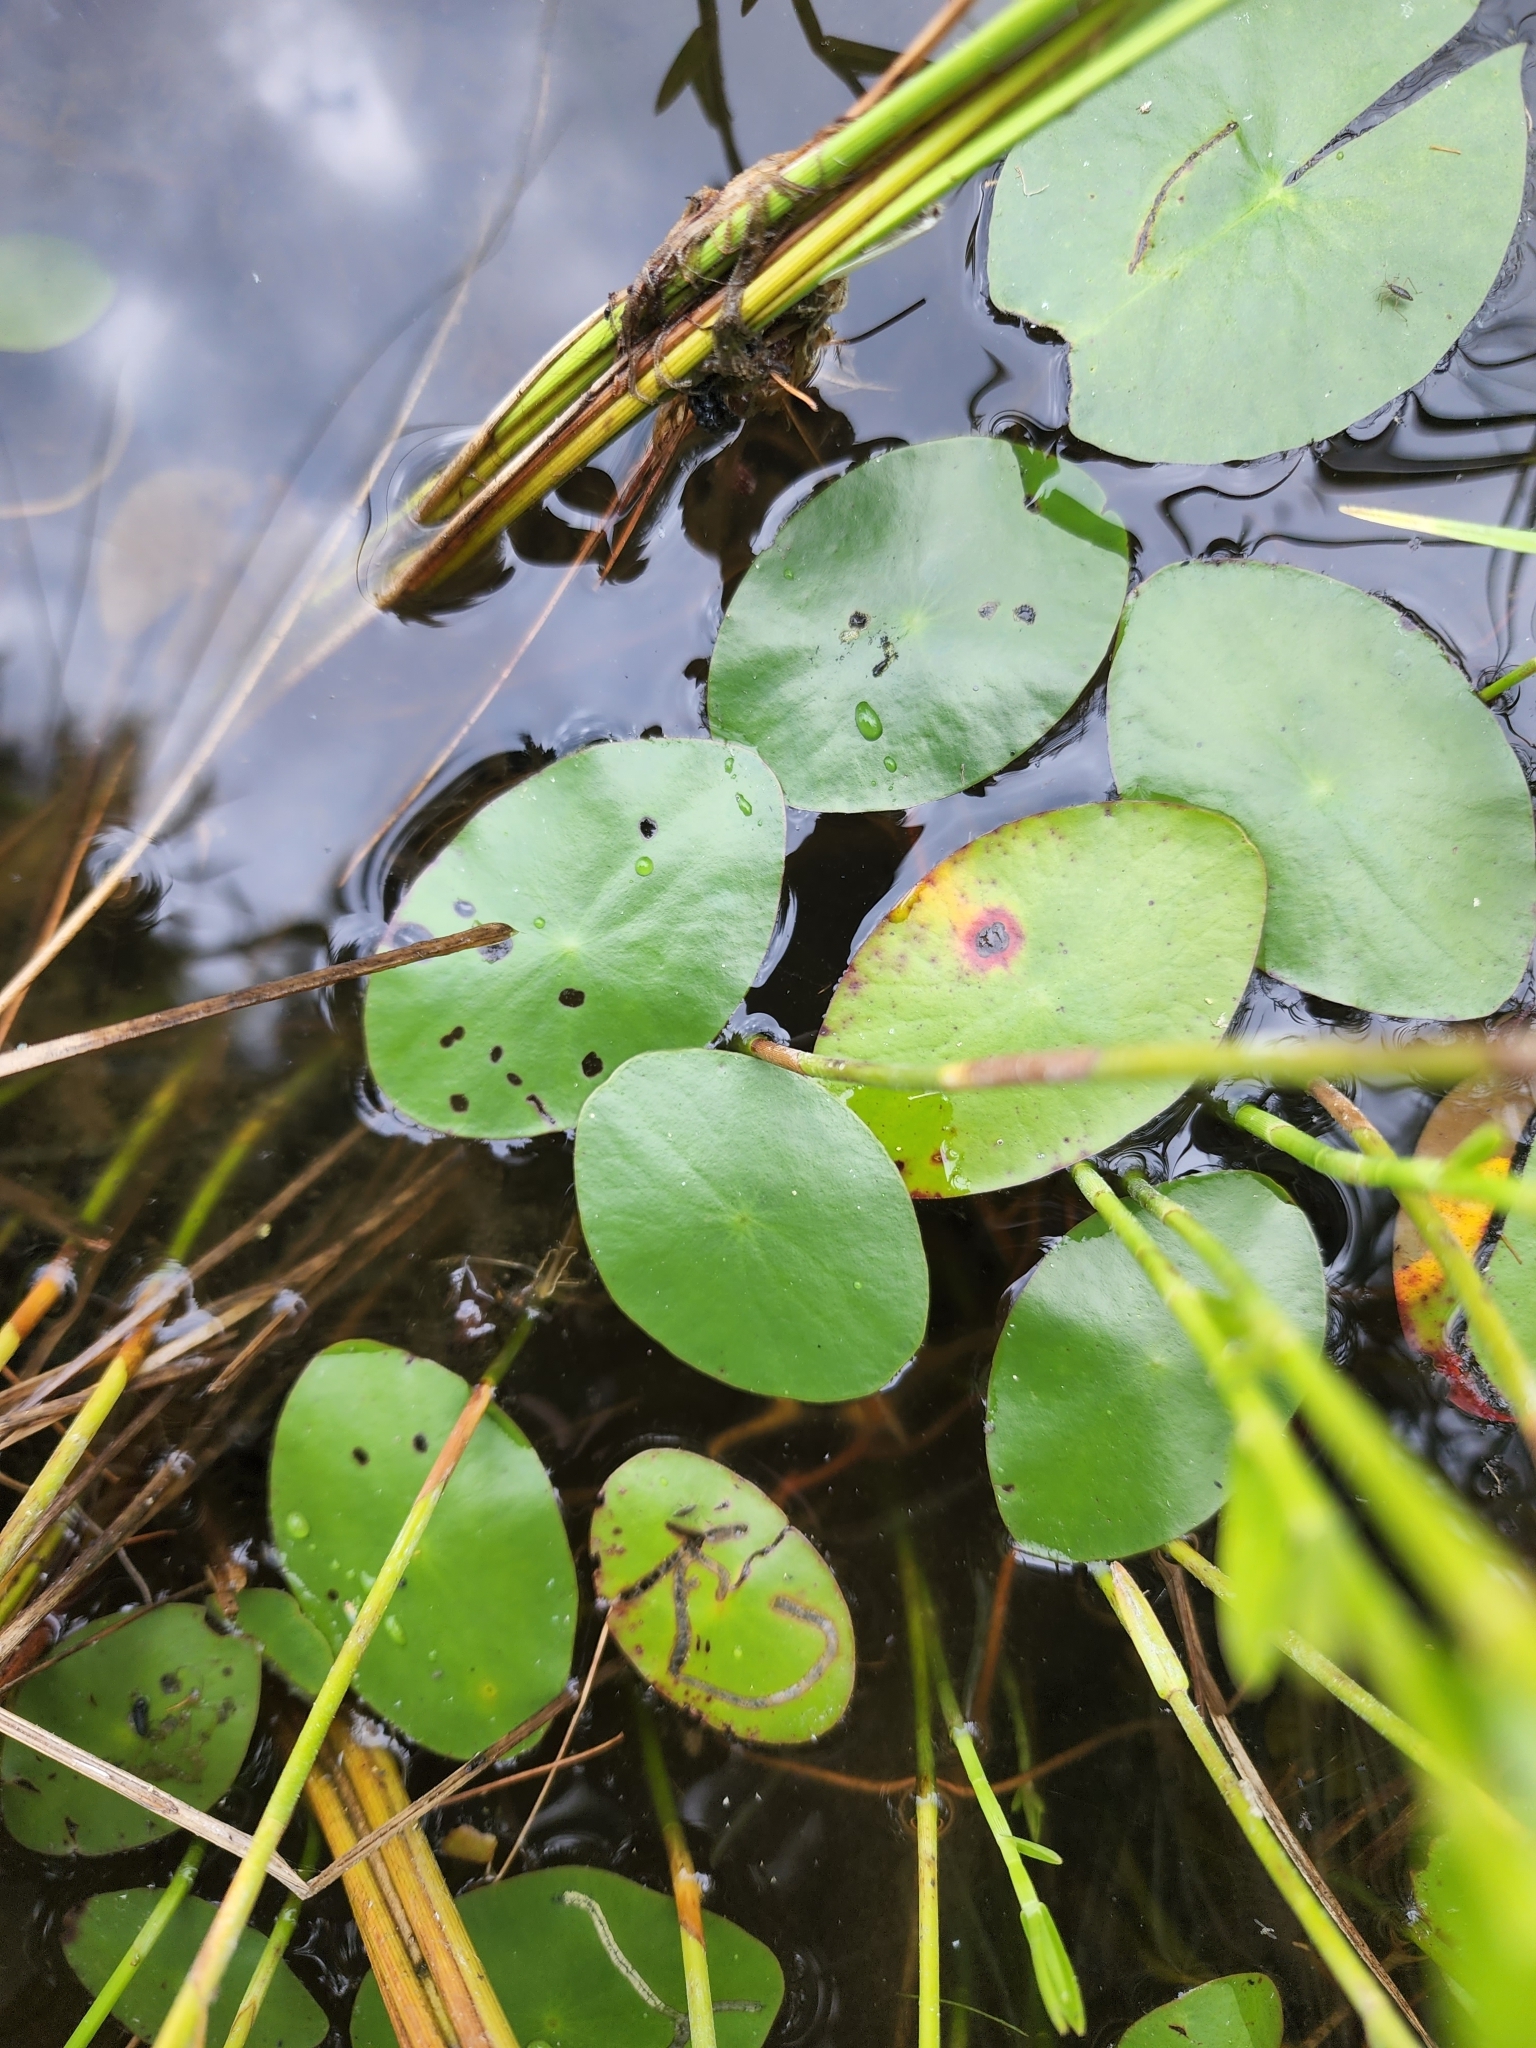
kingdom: Plantae
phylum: Tracheophyta
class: Magnoliopsida
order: Nymphaeales
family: Cabombaceae
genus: Brasenia
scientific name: Brasenia schreberi
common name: Water-shield
